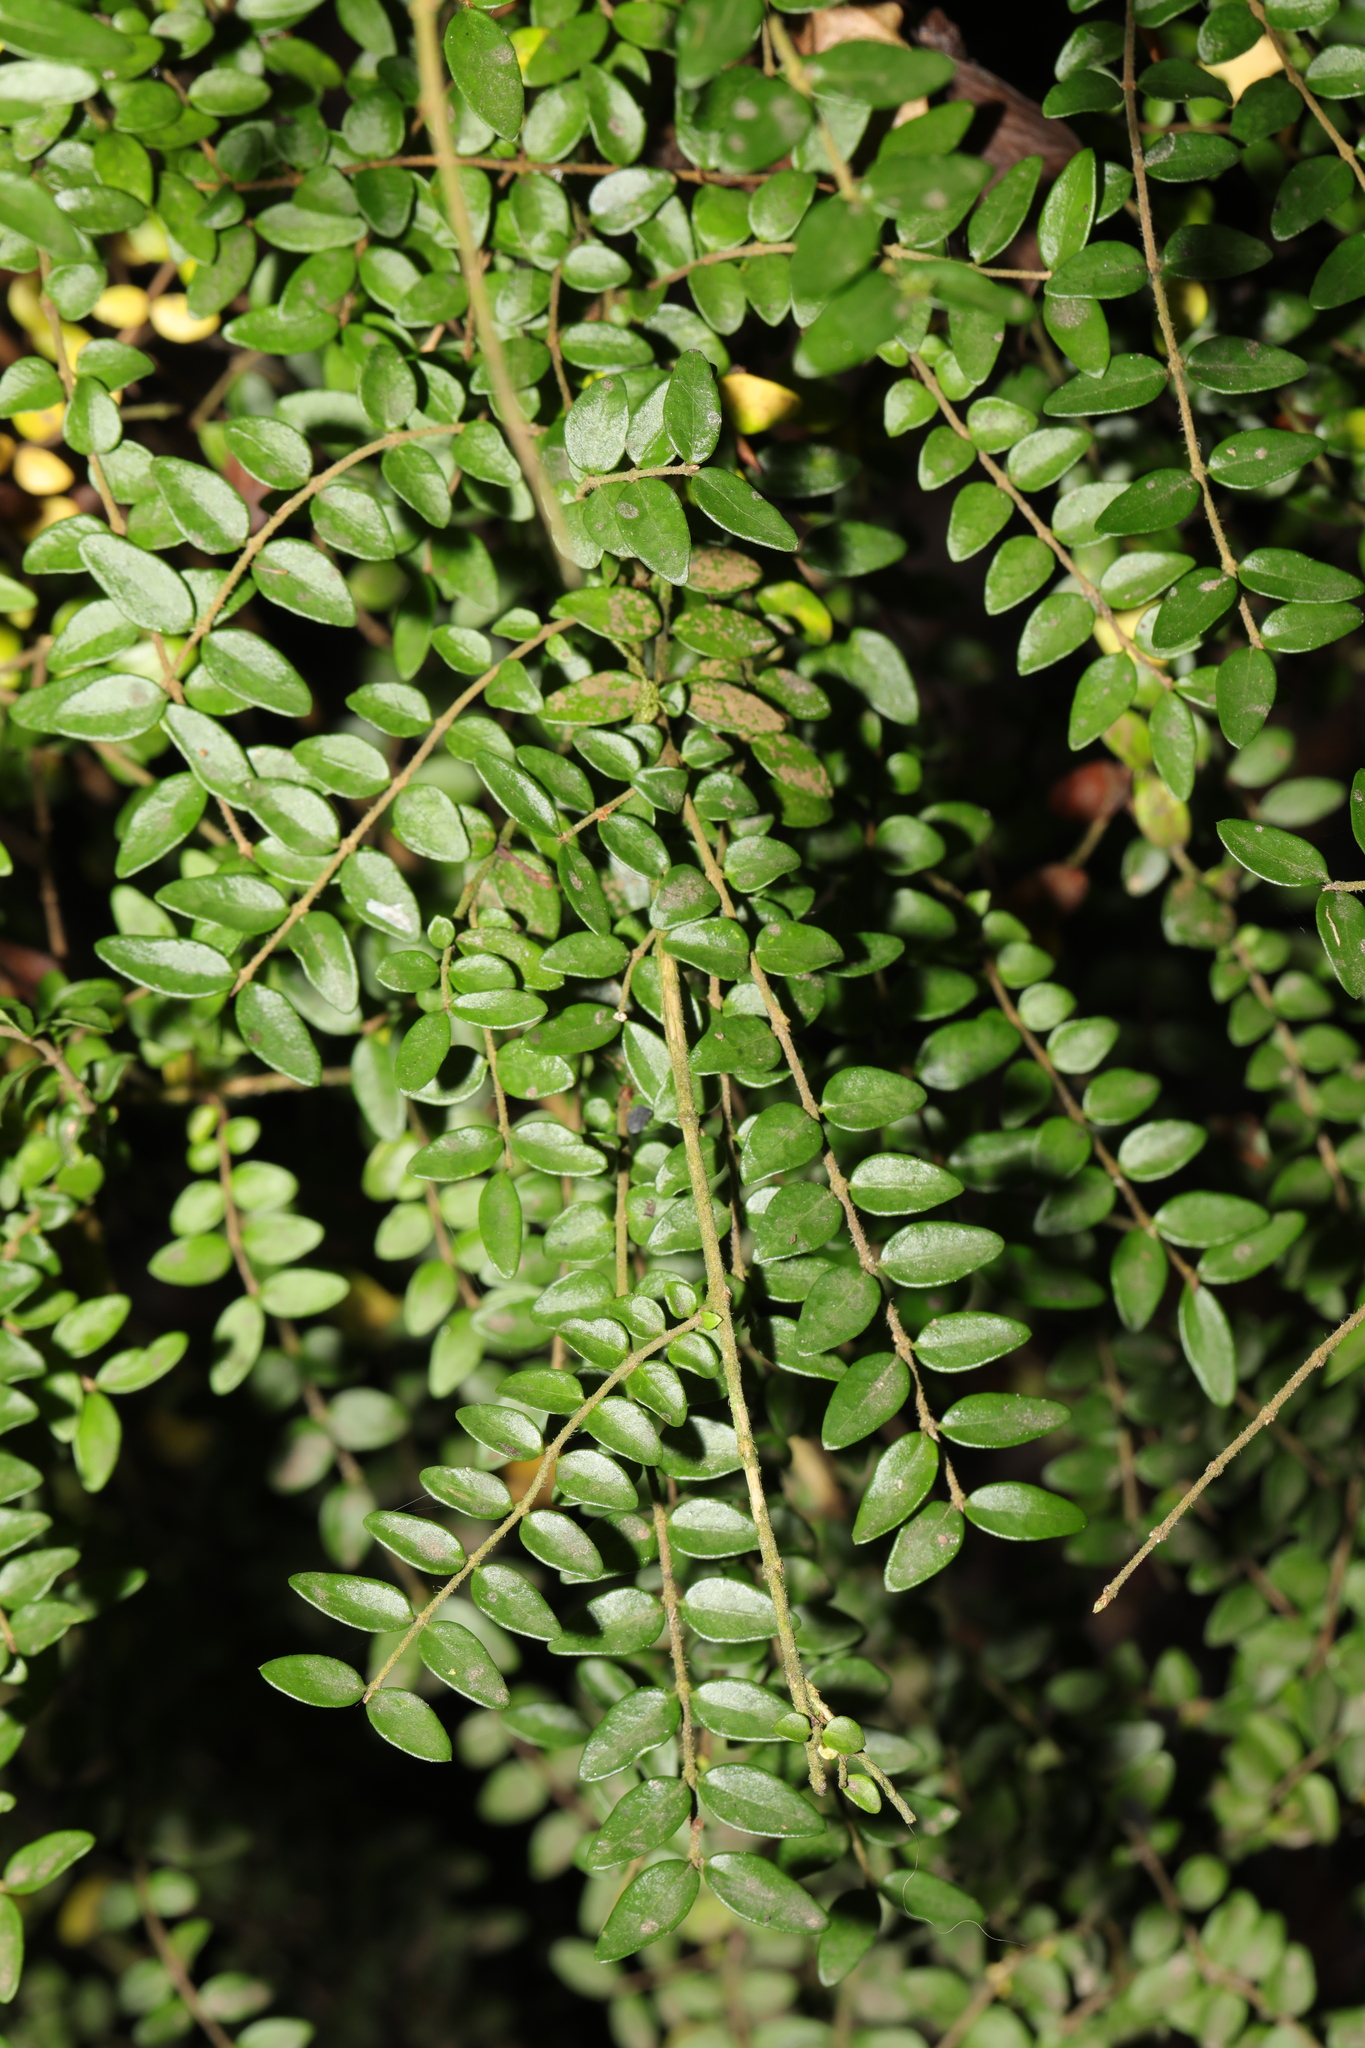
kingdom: Plantae
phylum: Tracheophyta
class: Magnoliopsida
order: Dipsacales
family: Caprifoliaceae
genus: Lonicera
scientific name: Lonicera ligustrina
